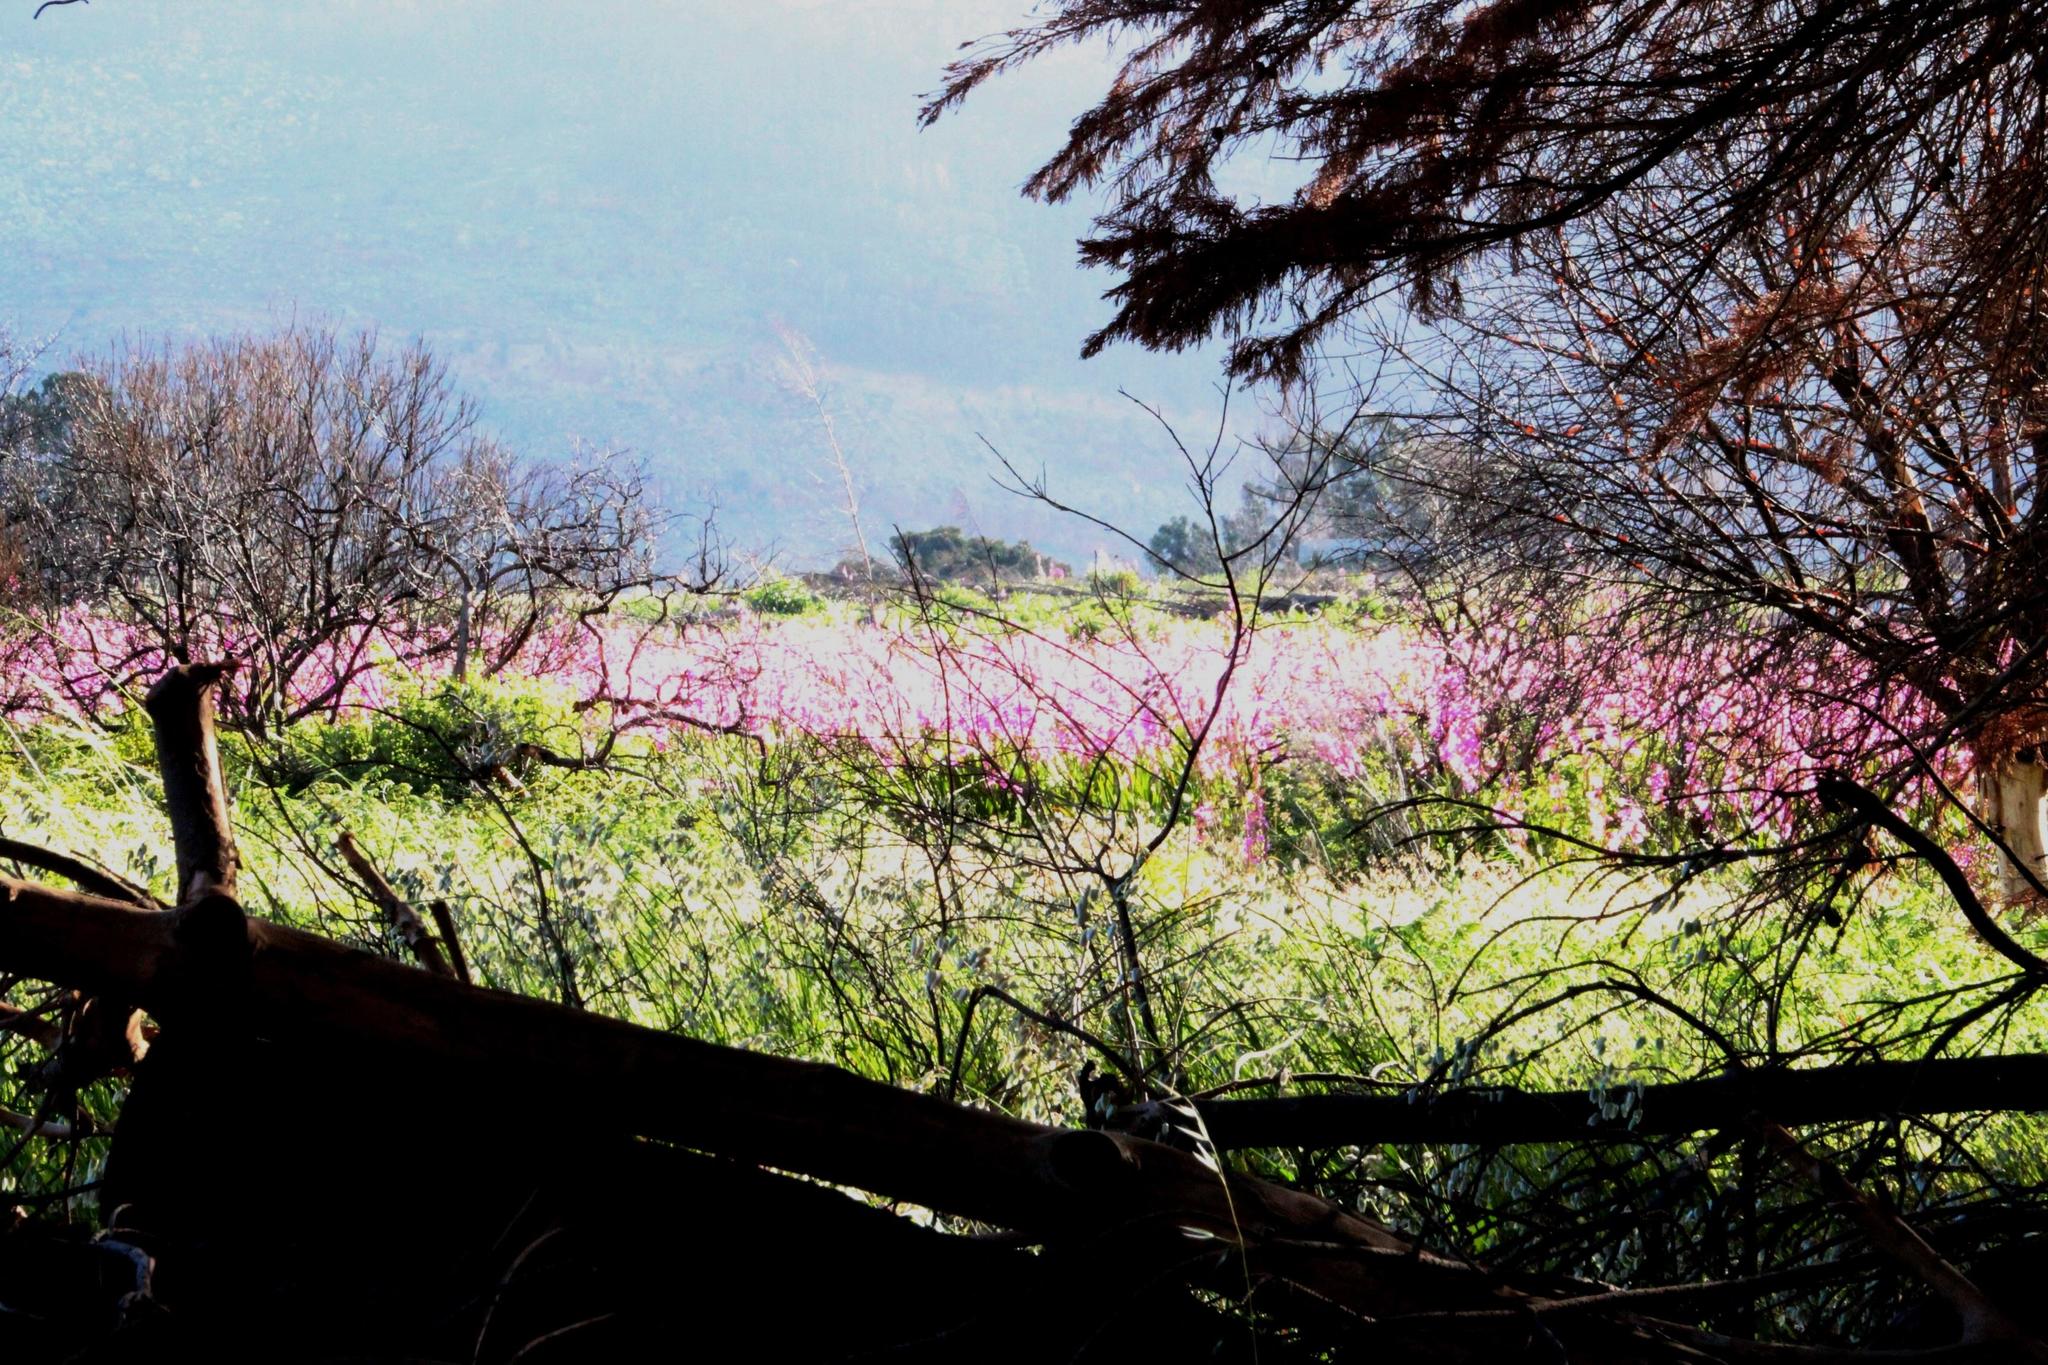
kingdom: Plantae
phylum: Tracheophyta
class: Liliopsida
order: Asparagales
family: Iridaceae
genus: Watsonia
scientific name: Watsonia borbonica
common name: Bugle-lily
